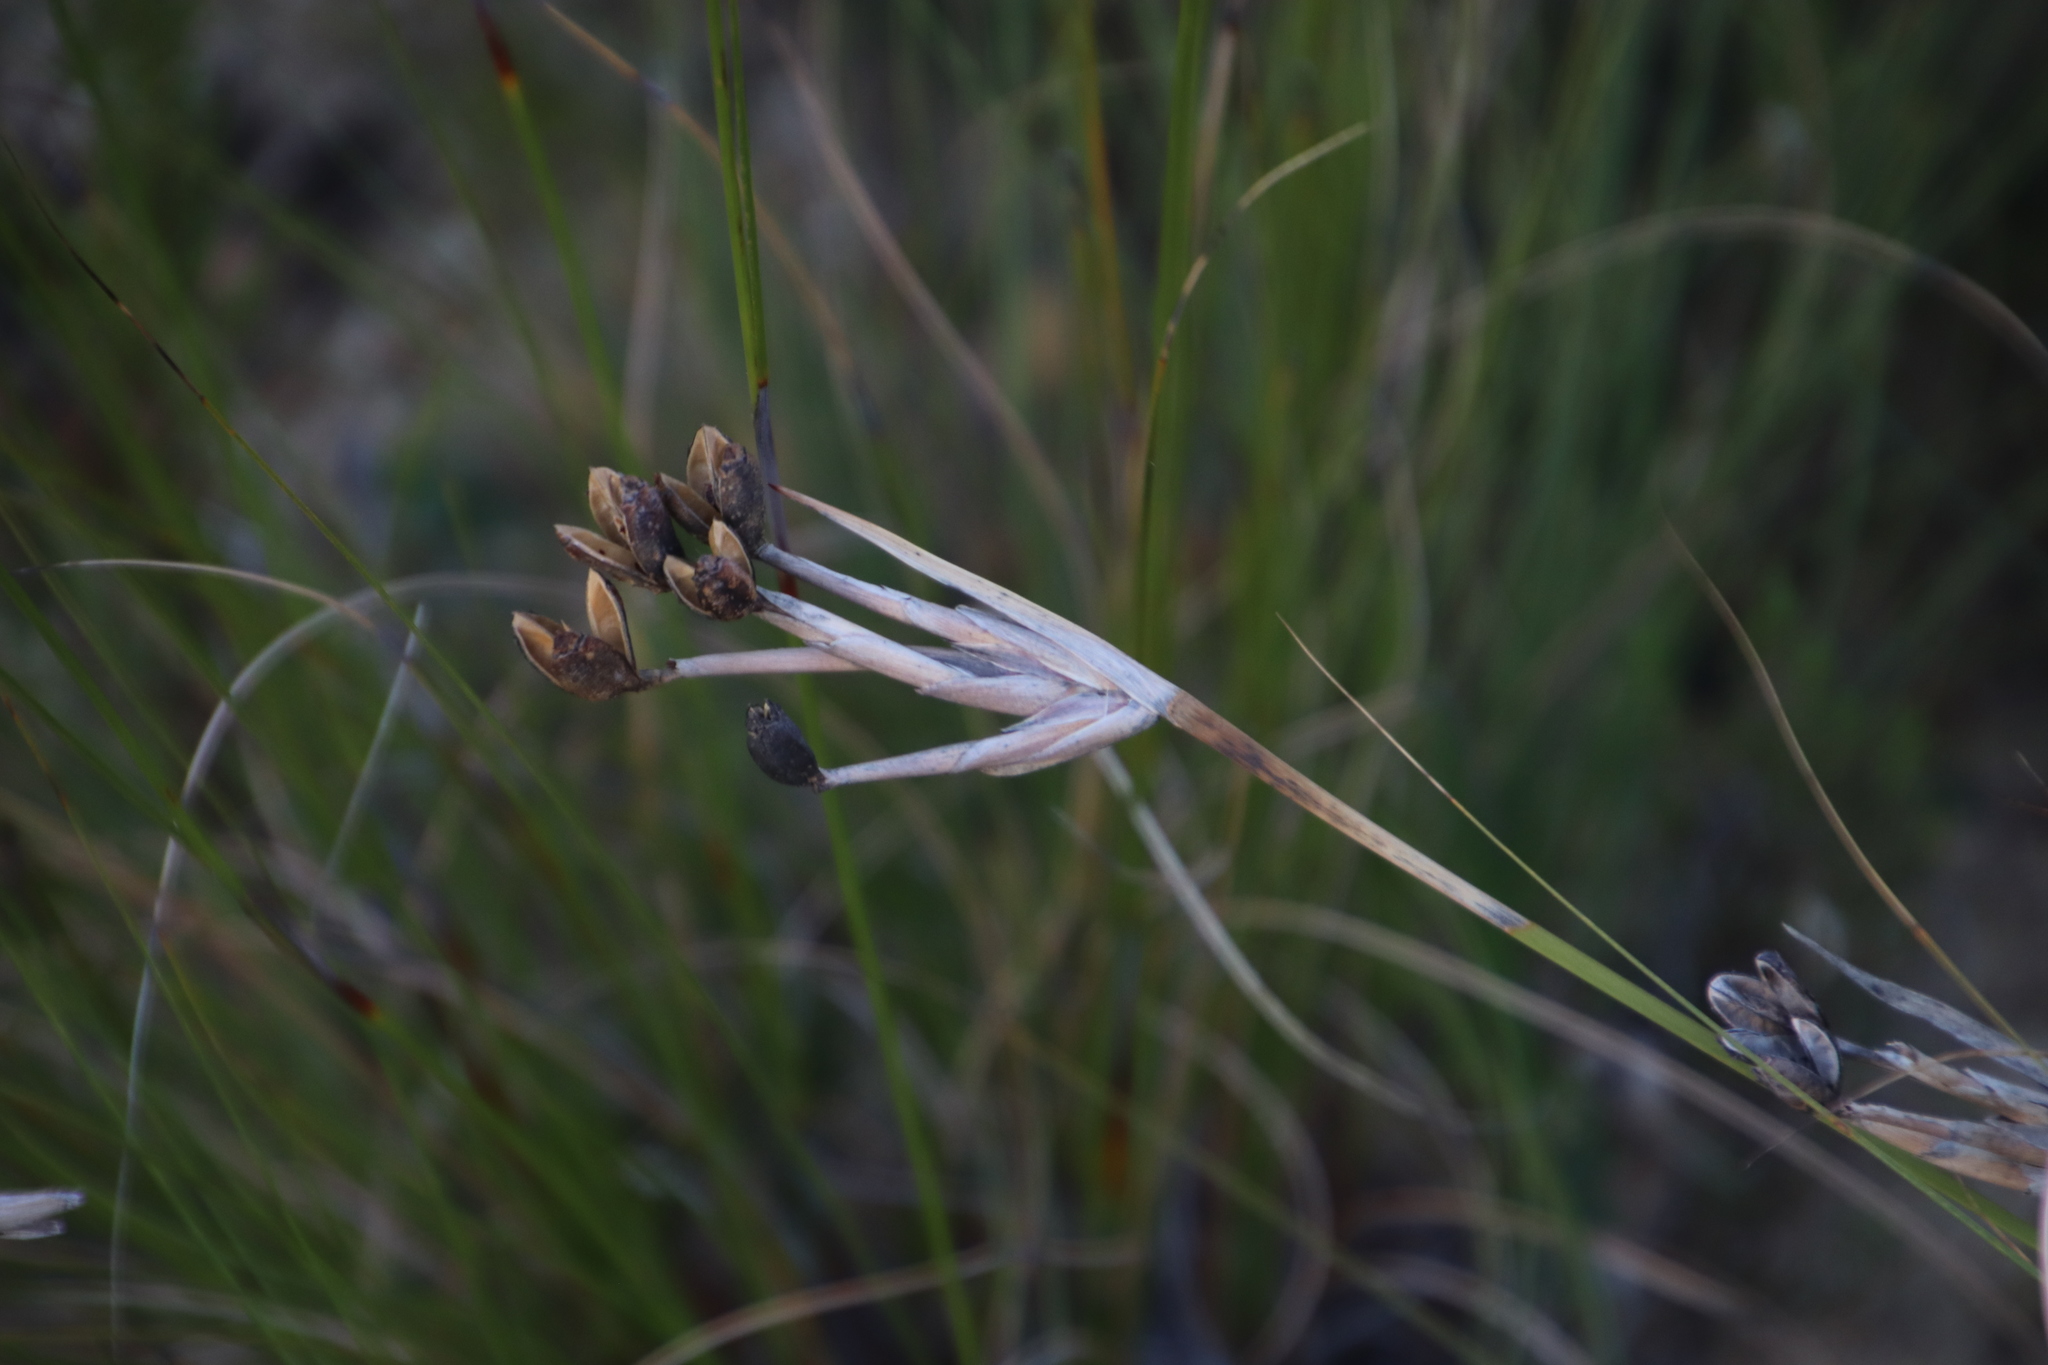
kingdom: Plantae
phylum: Tracheophyta
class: Liliopsida
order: Asparagales
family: Iridaceae
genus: Bobartia
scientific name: Bobartia gladiata
